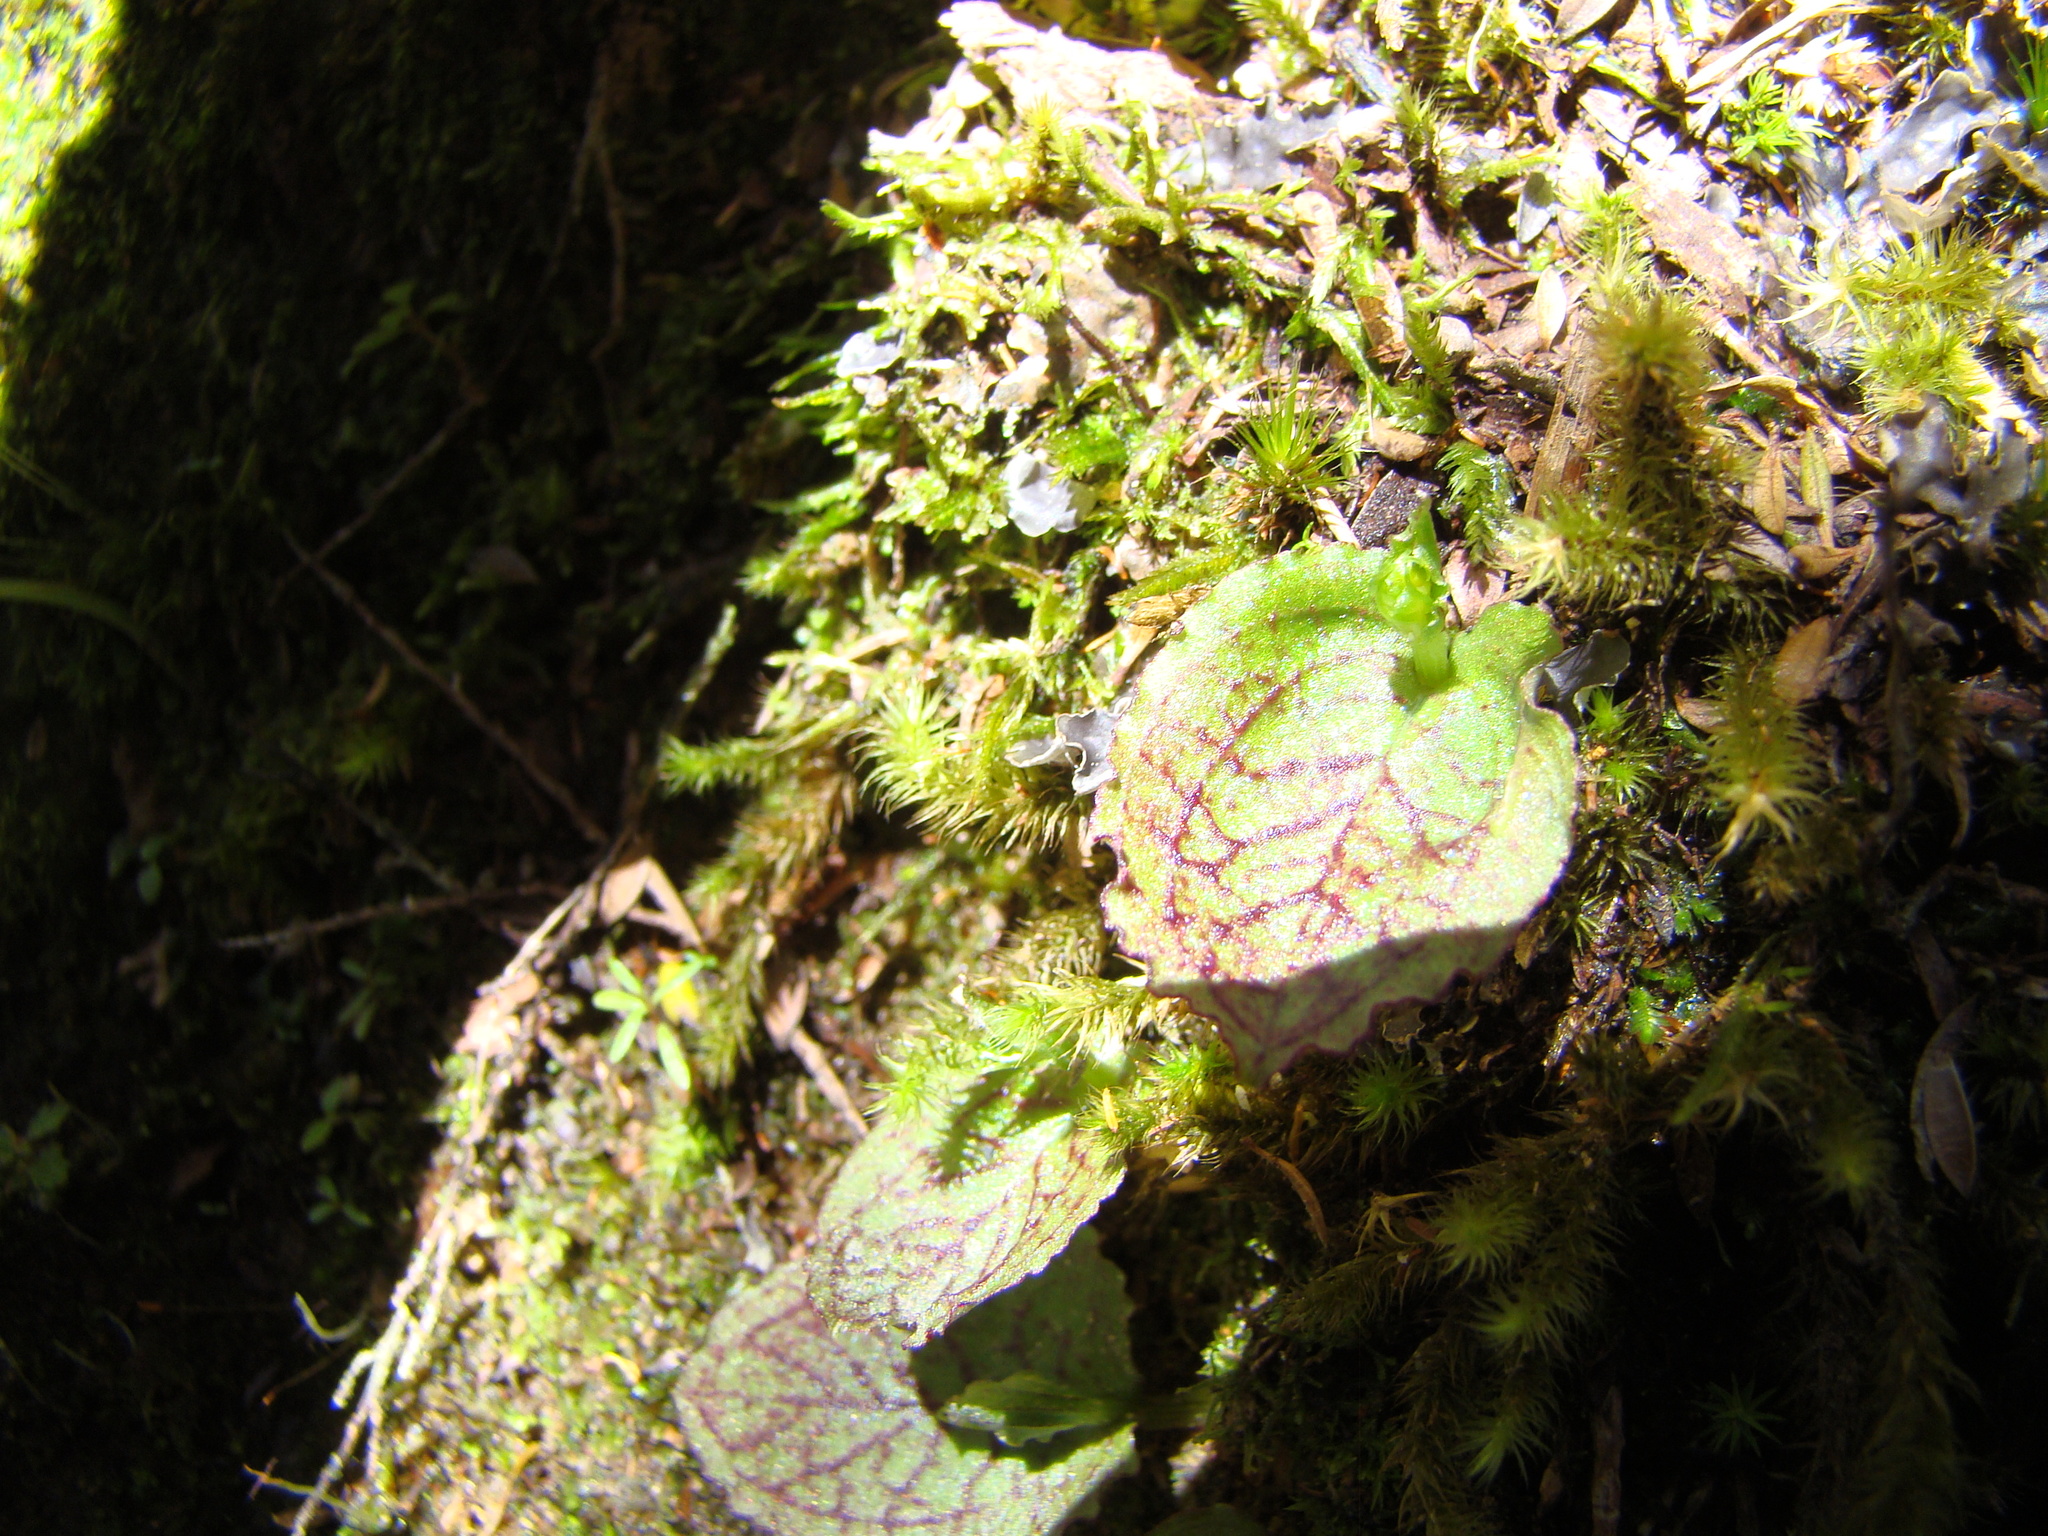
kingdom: Plantae
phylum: Tracheophyta
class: Liliopsida
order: Asparagales
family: Orchidaceae
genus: Corybas
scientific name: Corybas oblongus
